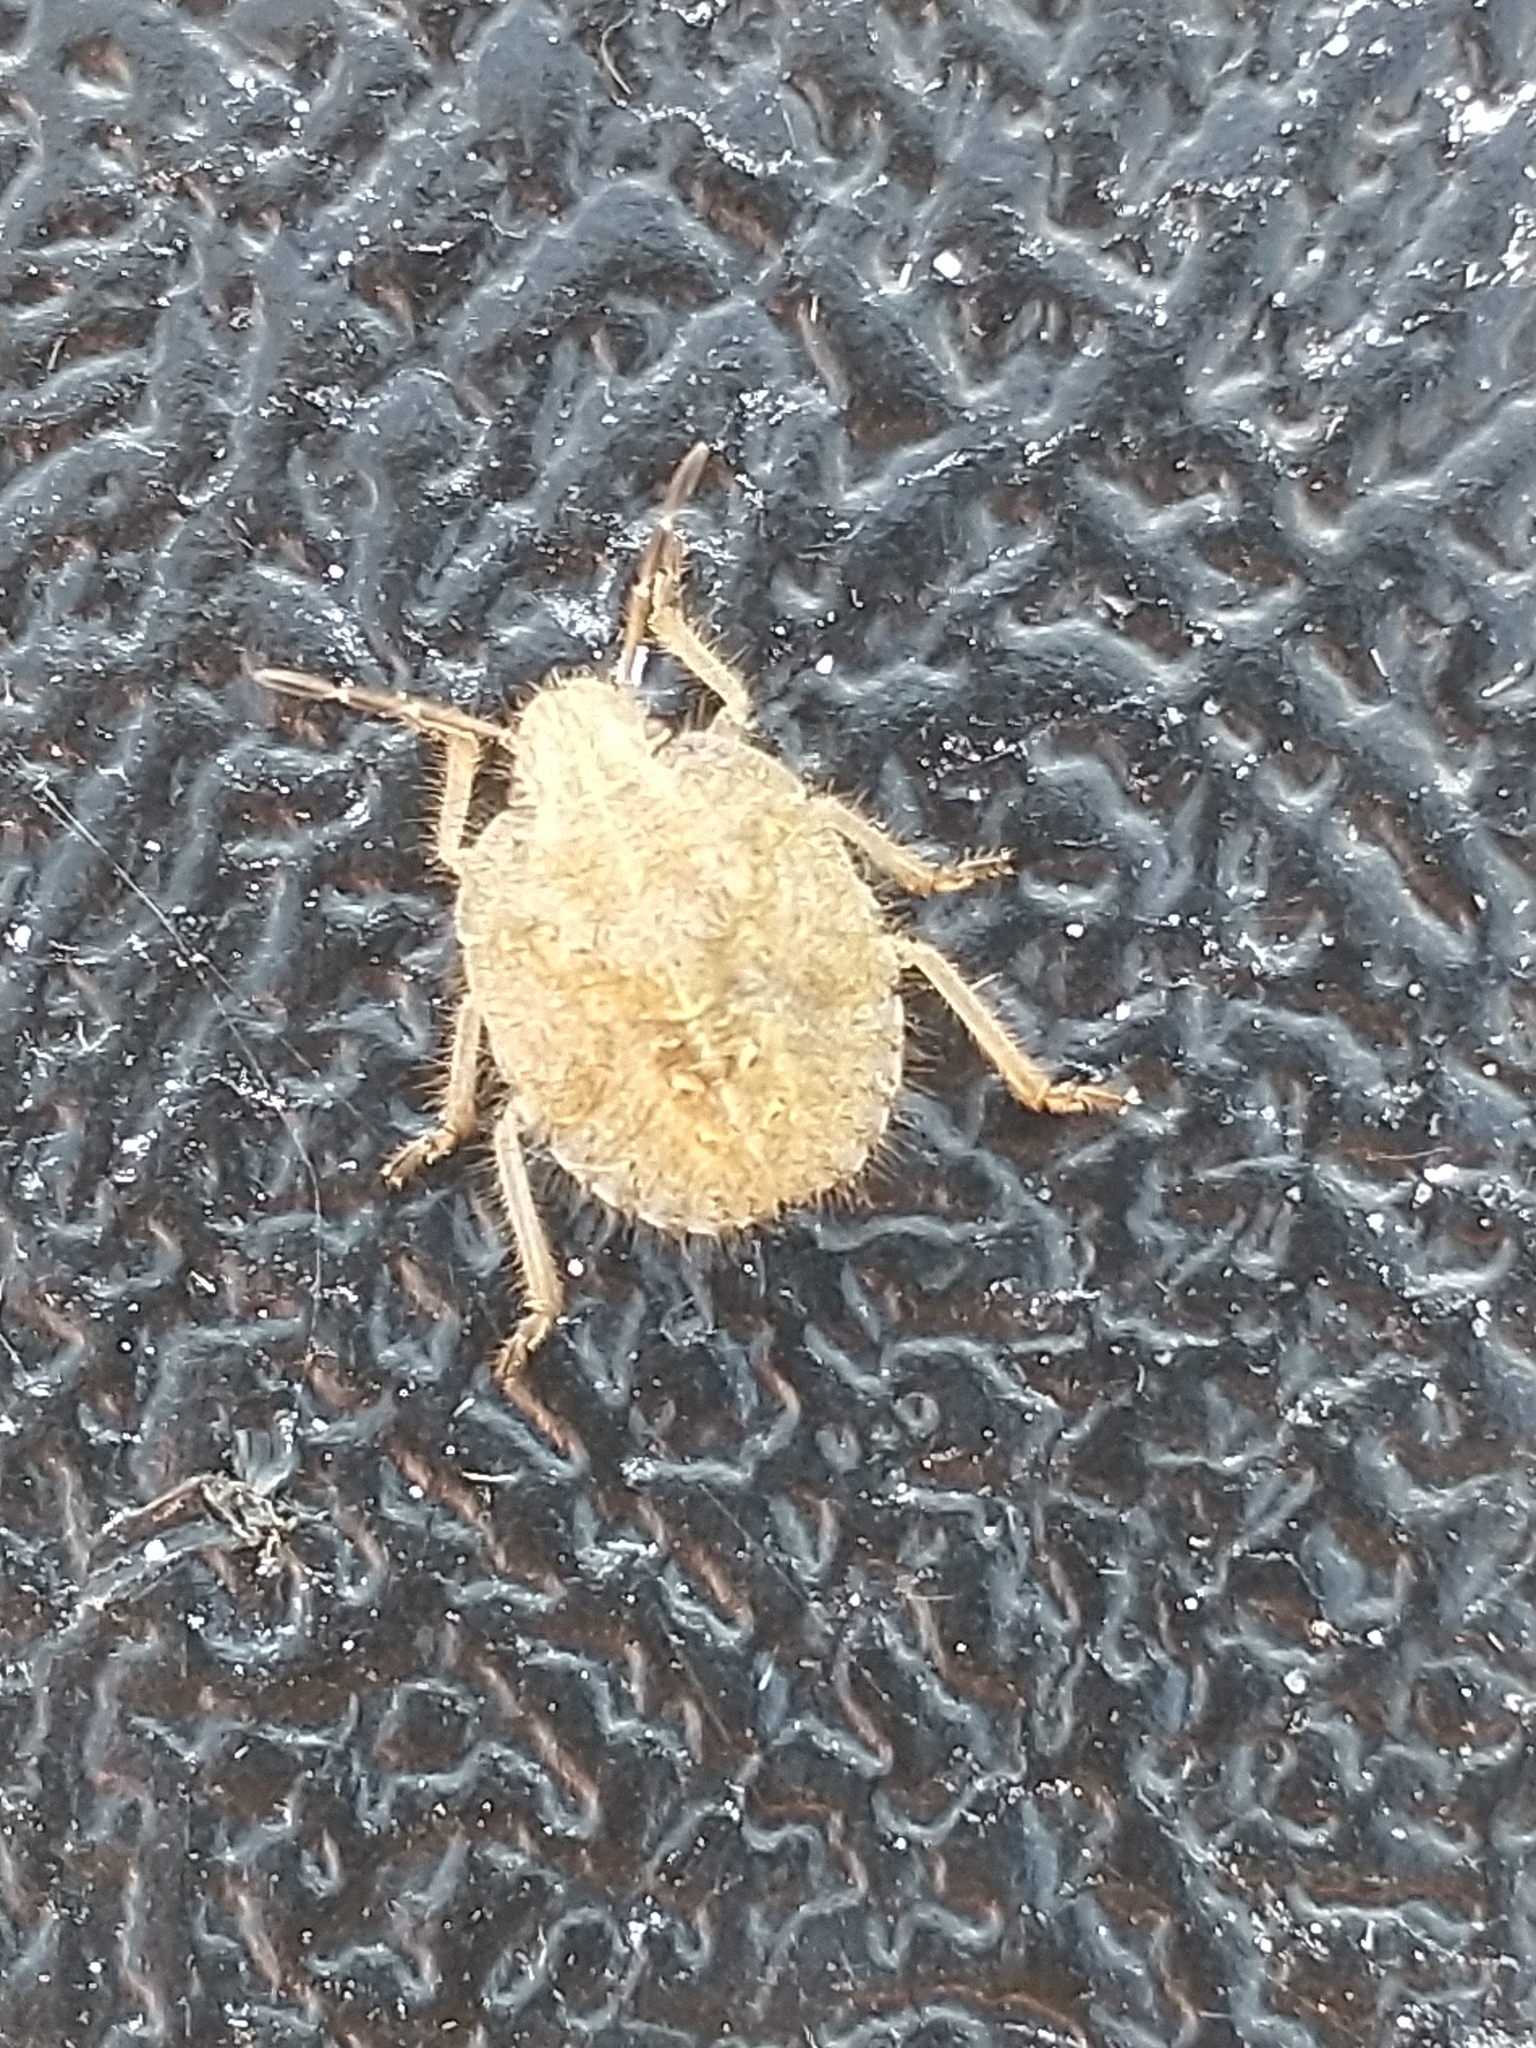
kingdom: Animalia
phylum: Arthropoda
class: Insecta
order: Hemiptera
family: Pentatomidae
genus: Dolycoris
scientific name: Dolycoris baccarum
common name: Sloe bug
